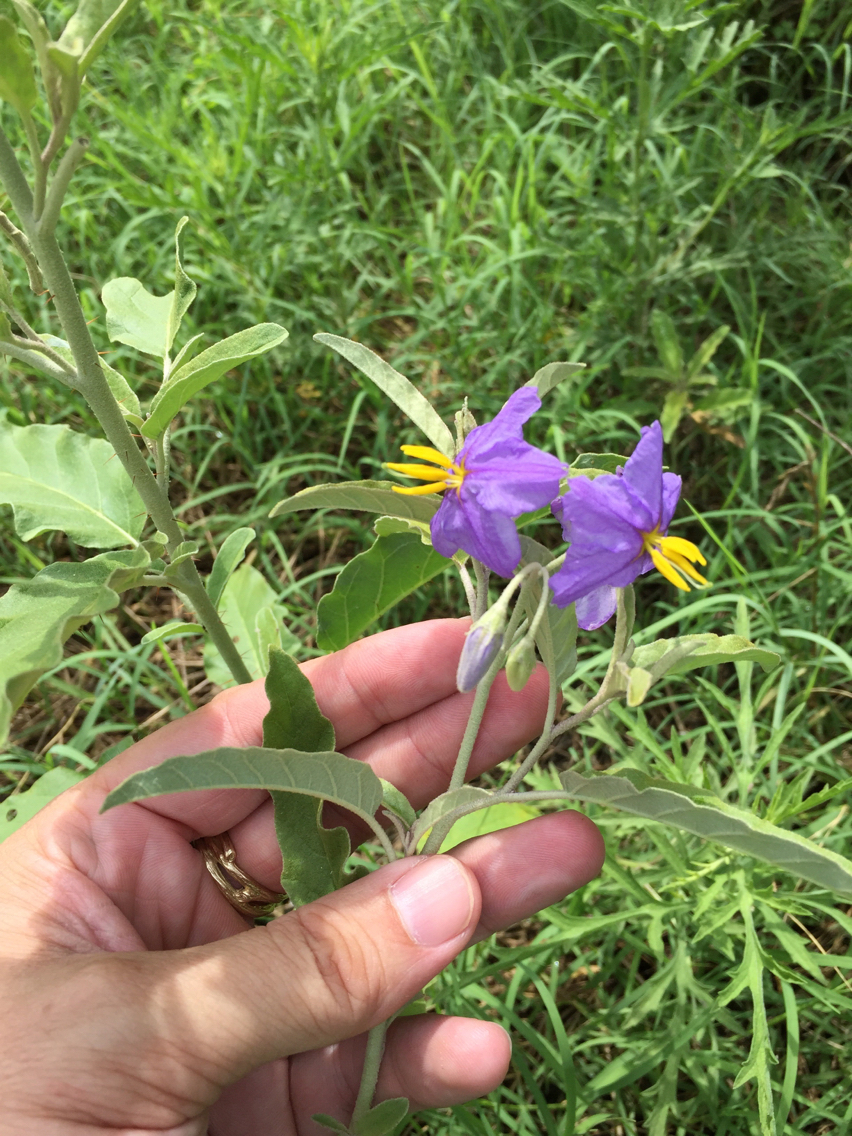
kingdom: Plantae
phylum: Tracheophyta
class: Magnoliopsida
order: Solanales
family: Solanaceae
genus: Solanum
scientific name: Solanum elaeagnifolium
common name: Silverleaf nightshade
